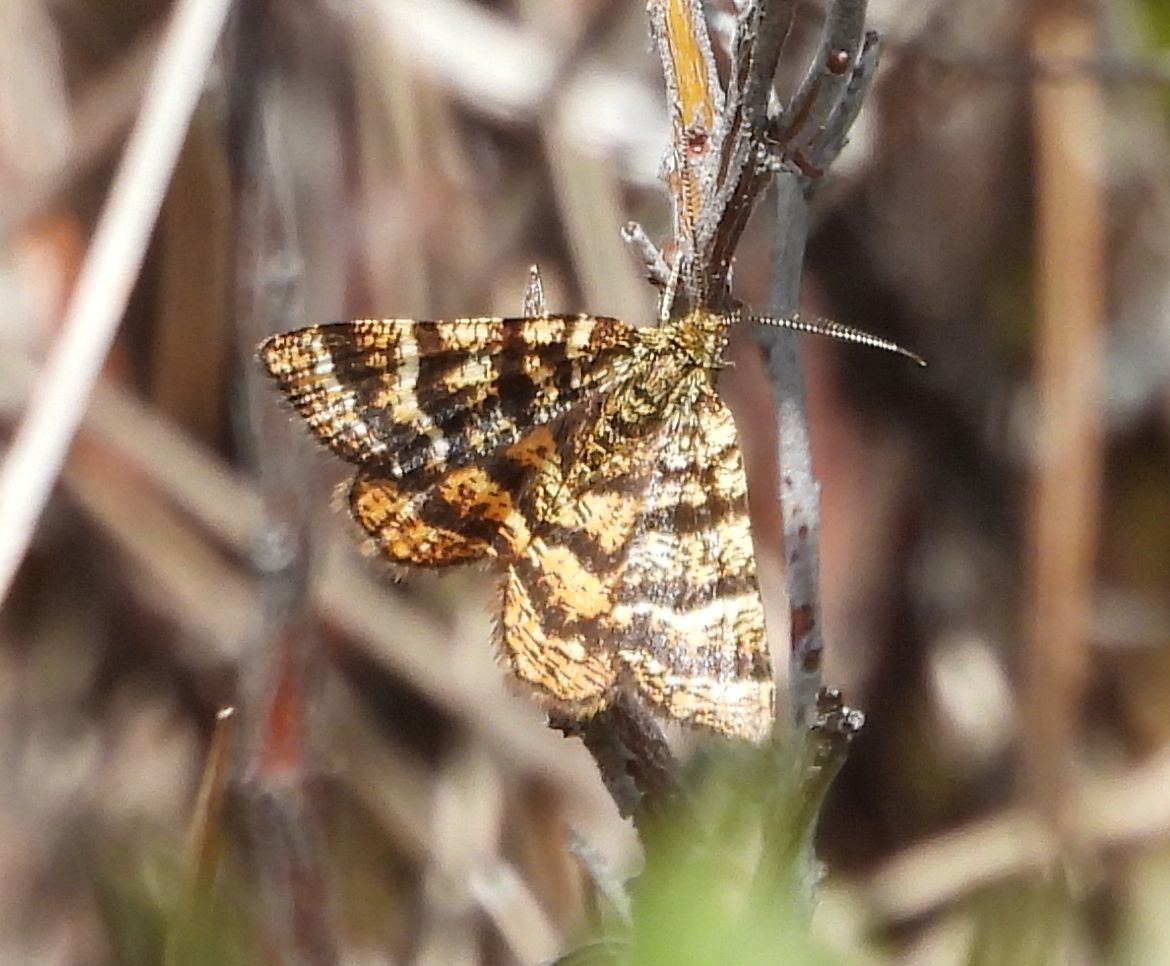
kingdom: Animalia
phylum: Arthropoda
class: Insecta
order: Lepidoptera
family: Geometridae
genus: Macaria
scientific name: Macaria truncataria
